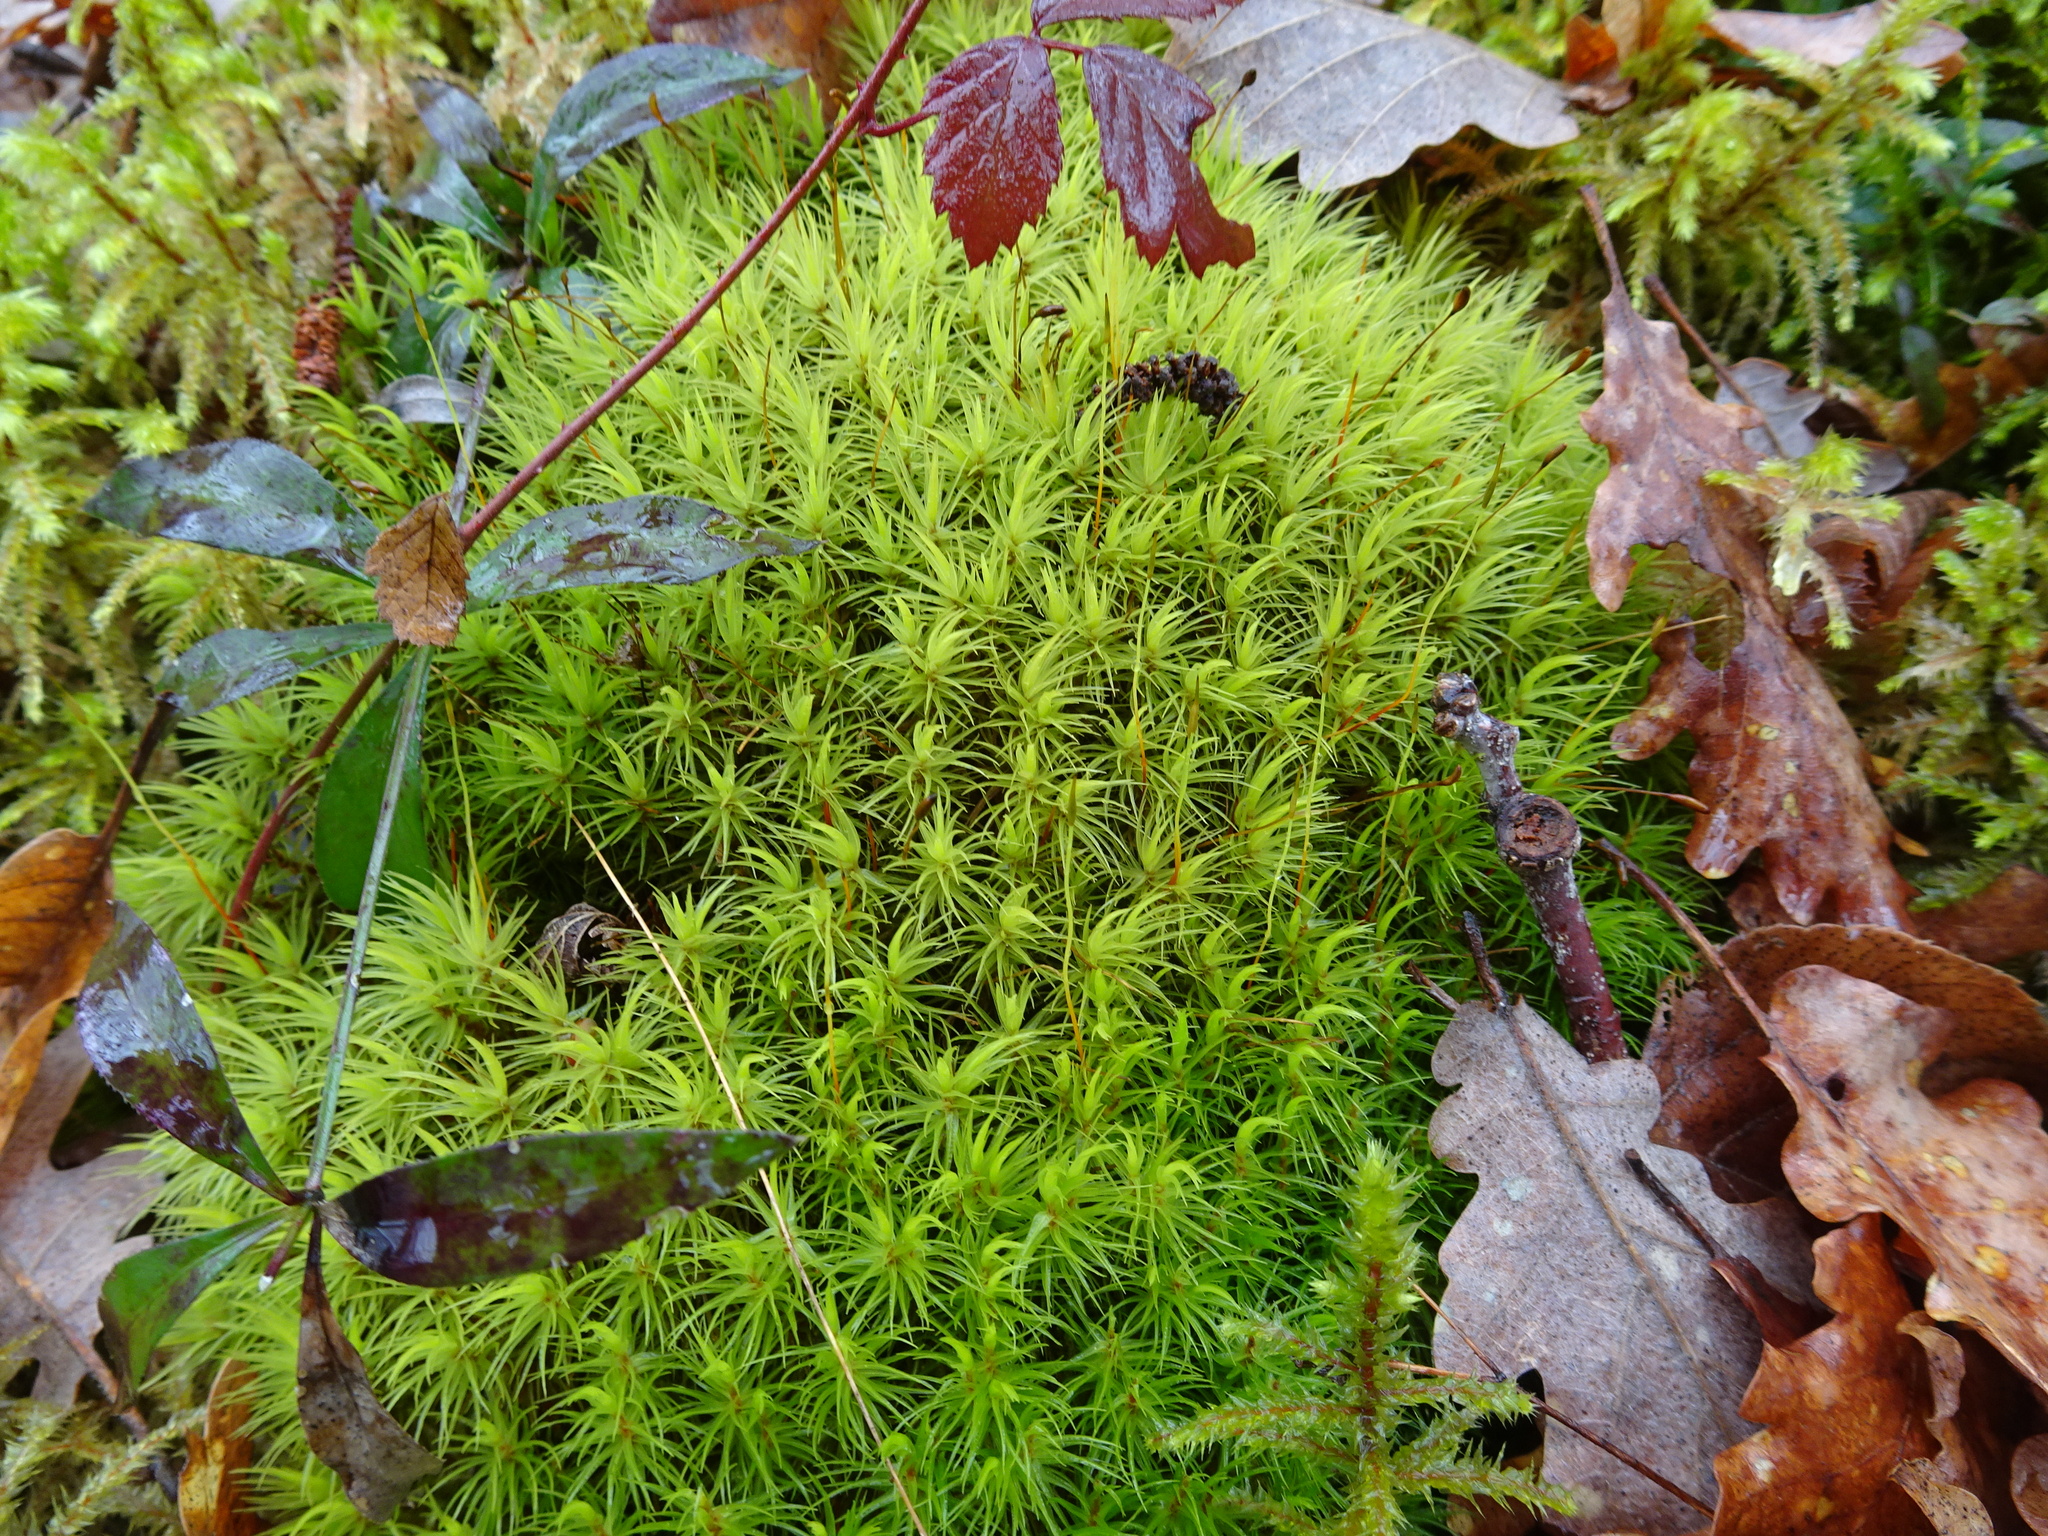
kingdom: Plantae
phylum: Bryophyta
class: Bryopsida
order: Dicranales
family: Dicranaceae
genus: Dicranum
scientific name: Dicranum scoparium
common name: Broom fork-moss
